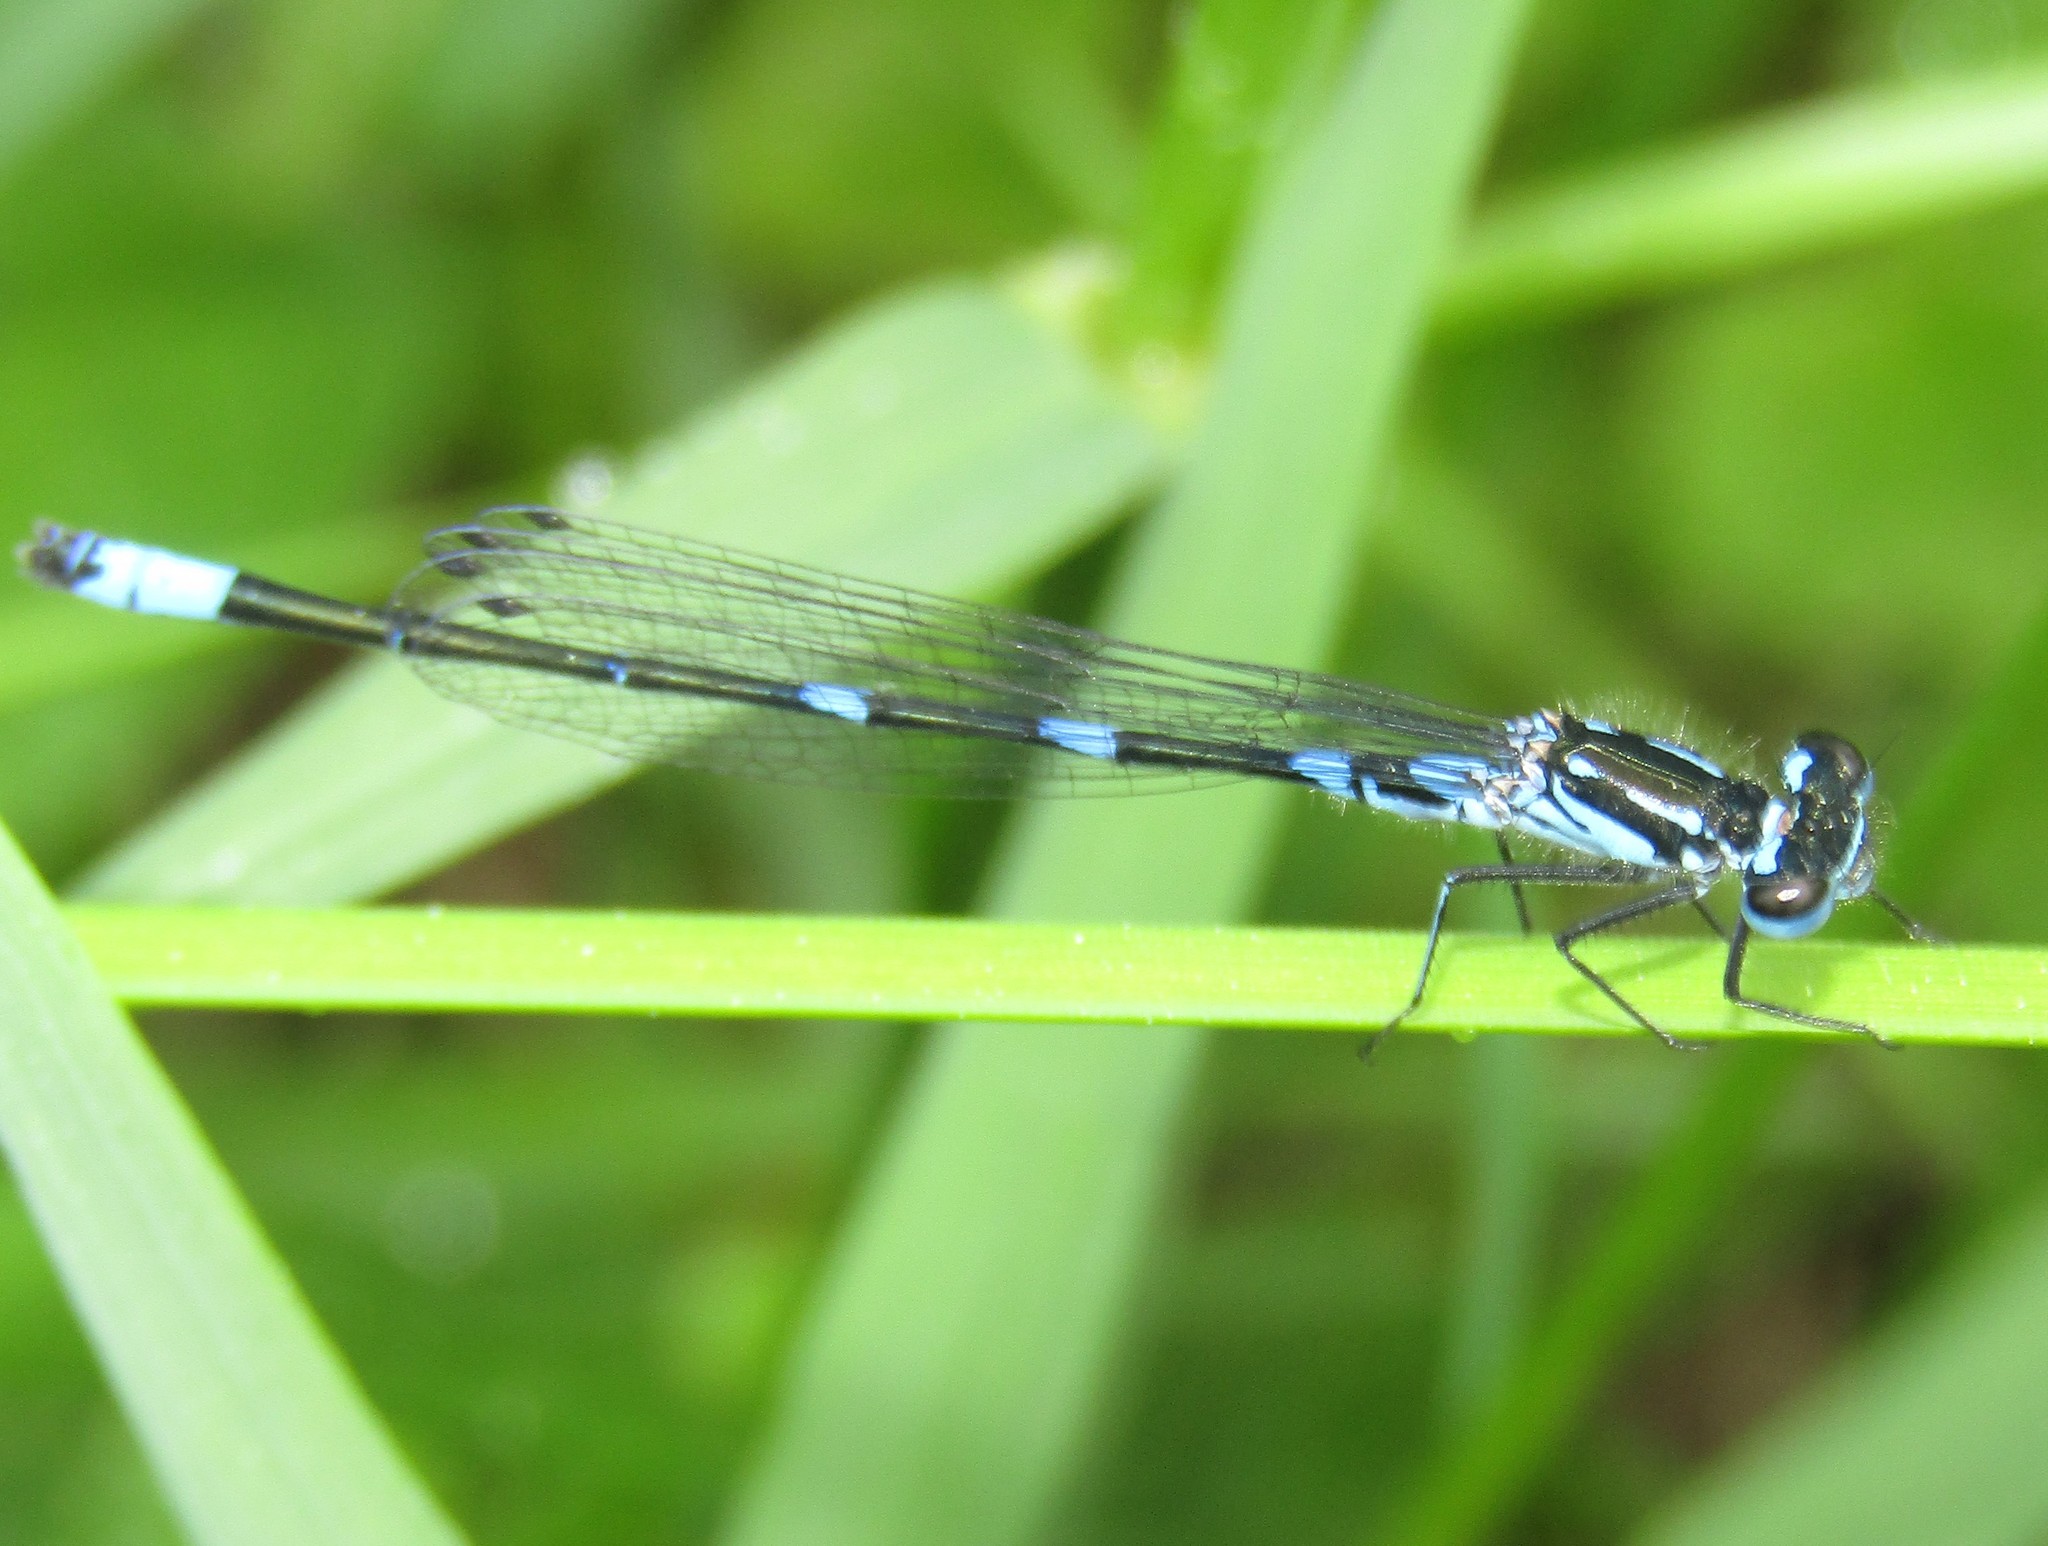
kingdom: Animalia
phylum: Arthropoda
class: Insecta
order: Odonata
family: Coenagrionidae
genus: Coenagrion
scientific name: Coenagrion pulchellum
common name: Variable bluet
